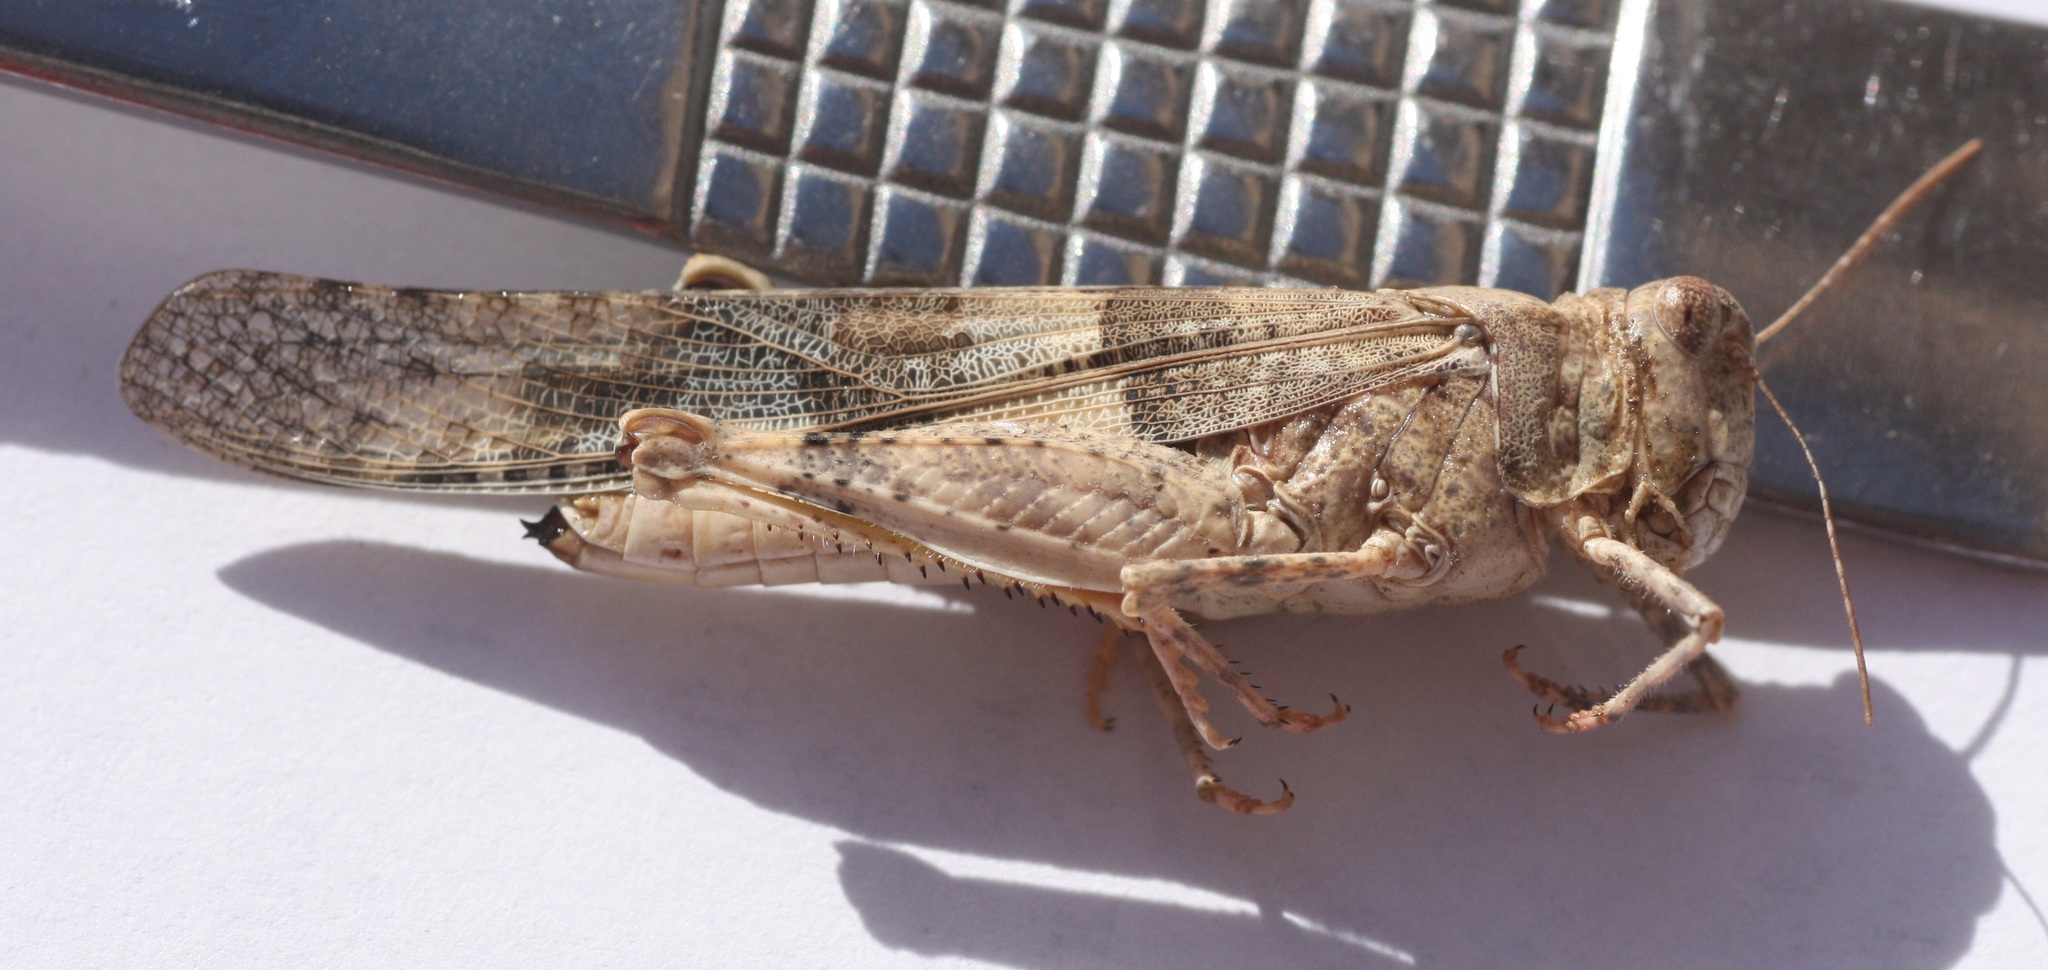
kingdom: Animalia
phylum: Arthropoda
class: Insecta
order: Orthoptera
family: Acrididae
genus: Trimerotropis
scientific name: Trimerotropis pallidipennis
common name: Pallid-winged grasshopper
